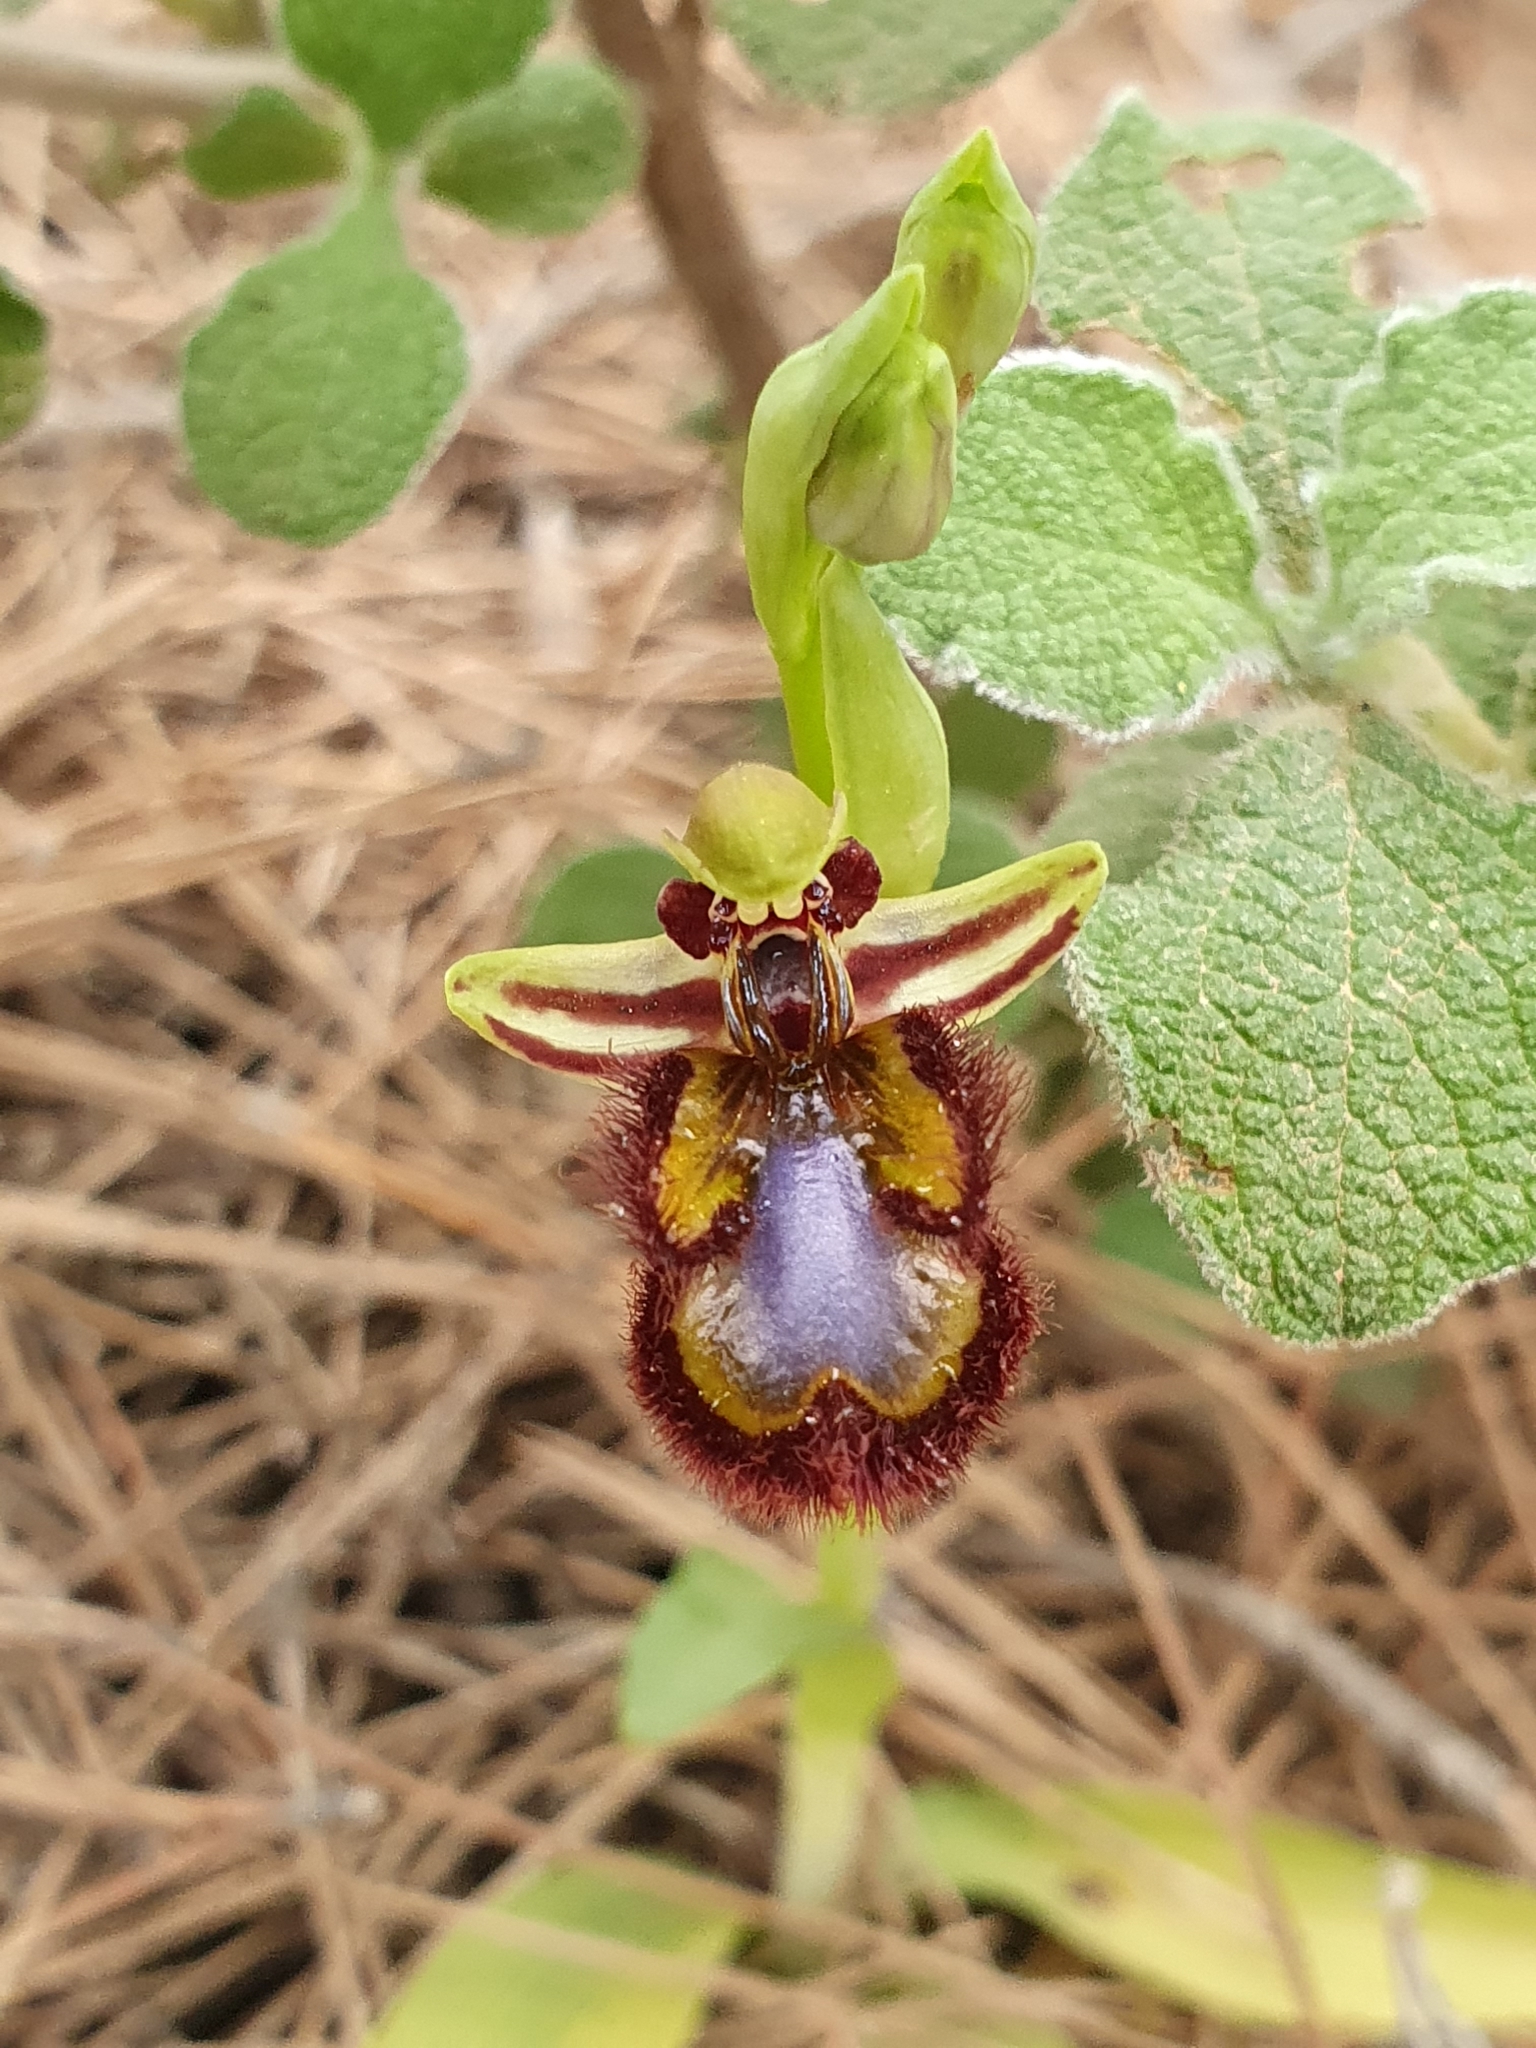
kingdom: Plantae
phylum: Tracheophyta
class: Liliopsida
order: Asparagales
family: Orchidaceae
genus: Ophrys
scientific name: Ophrys speculum
